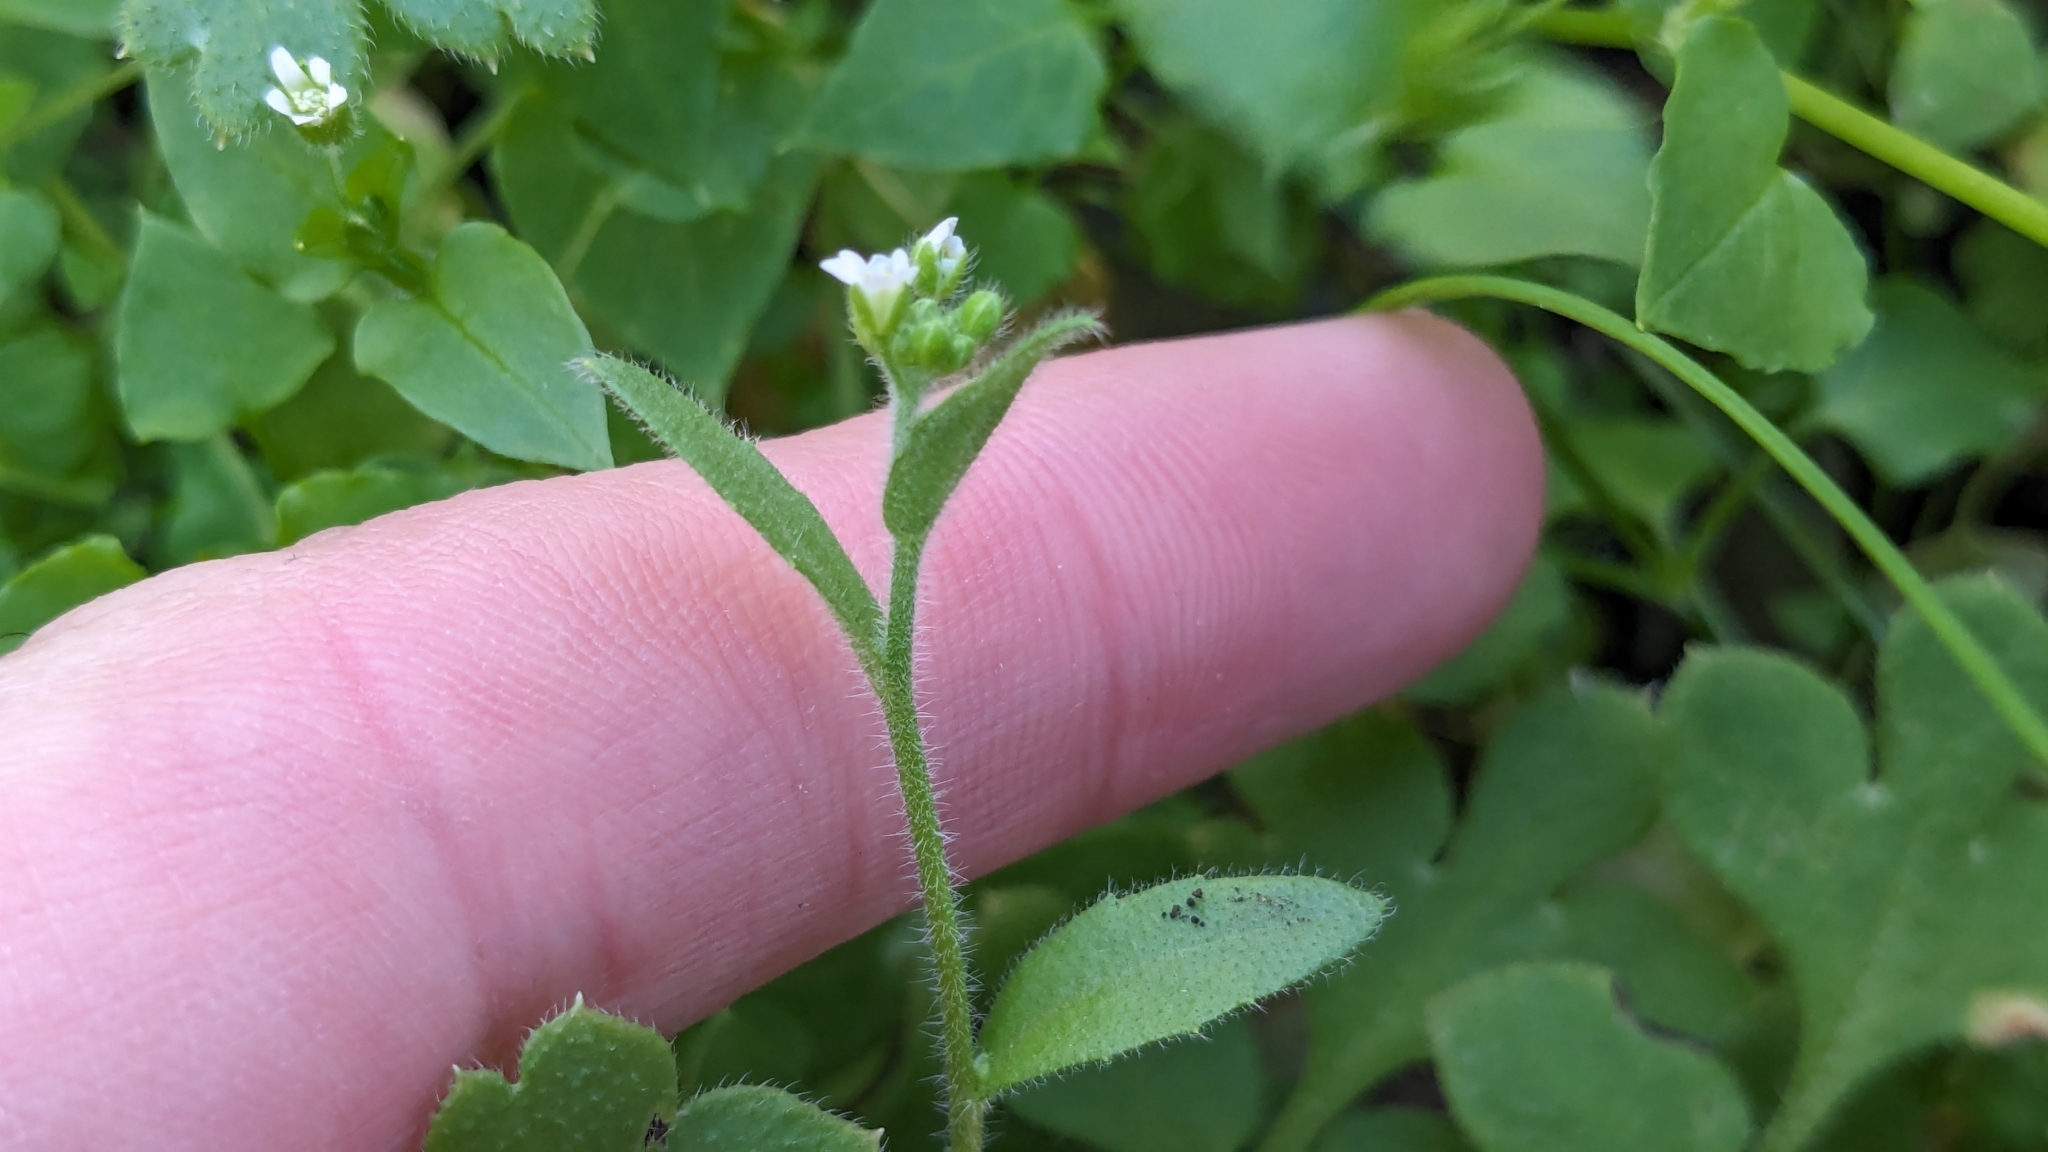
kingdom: Plantae
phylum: Tracheophyta
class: Magnoliopsida
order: Brassicales
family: Brassicaceae
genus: Tomostima
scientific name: Tomostima platycarpa
